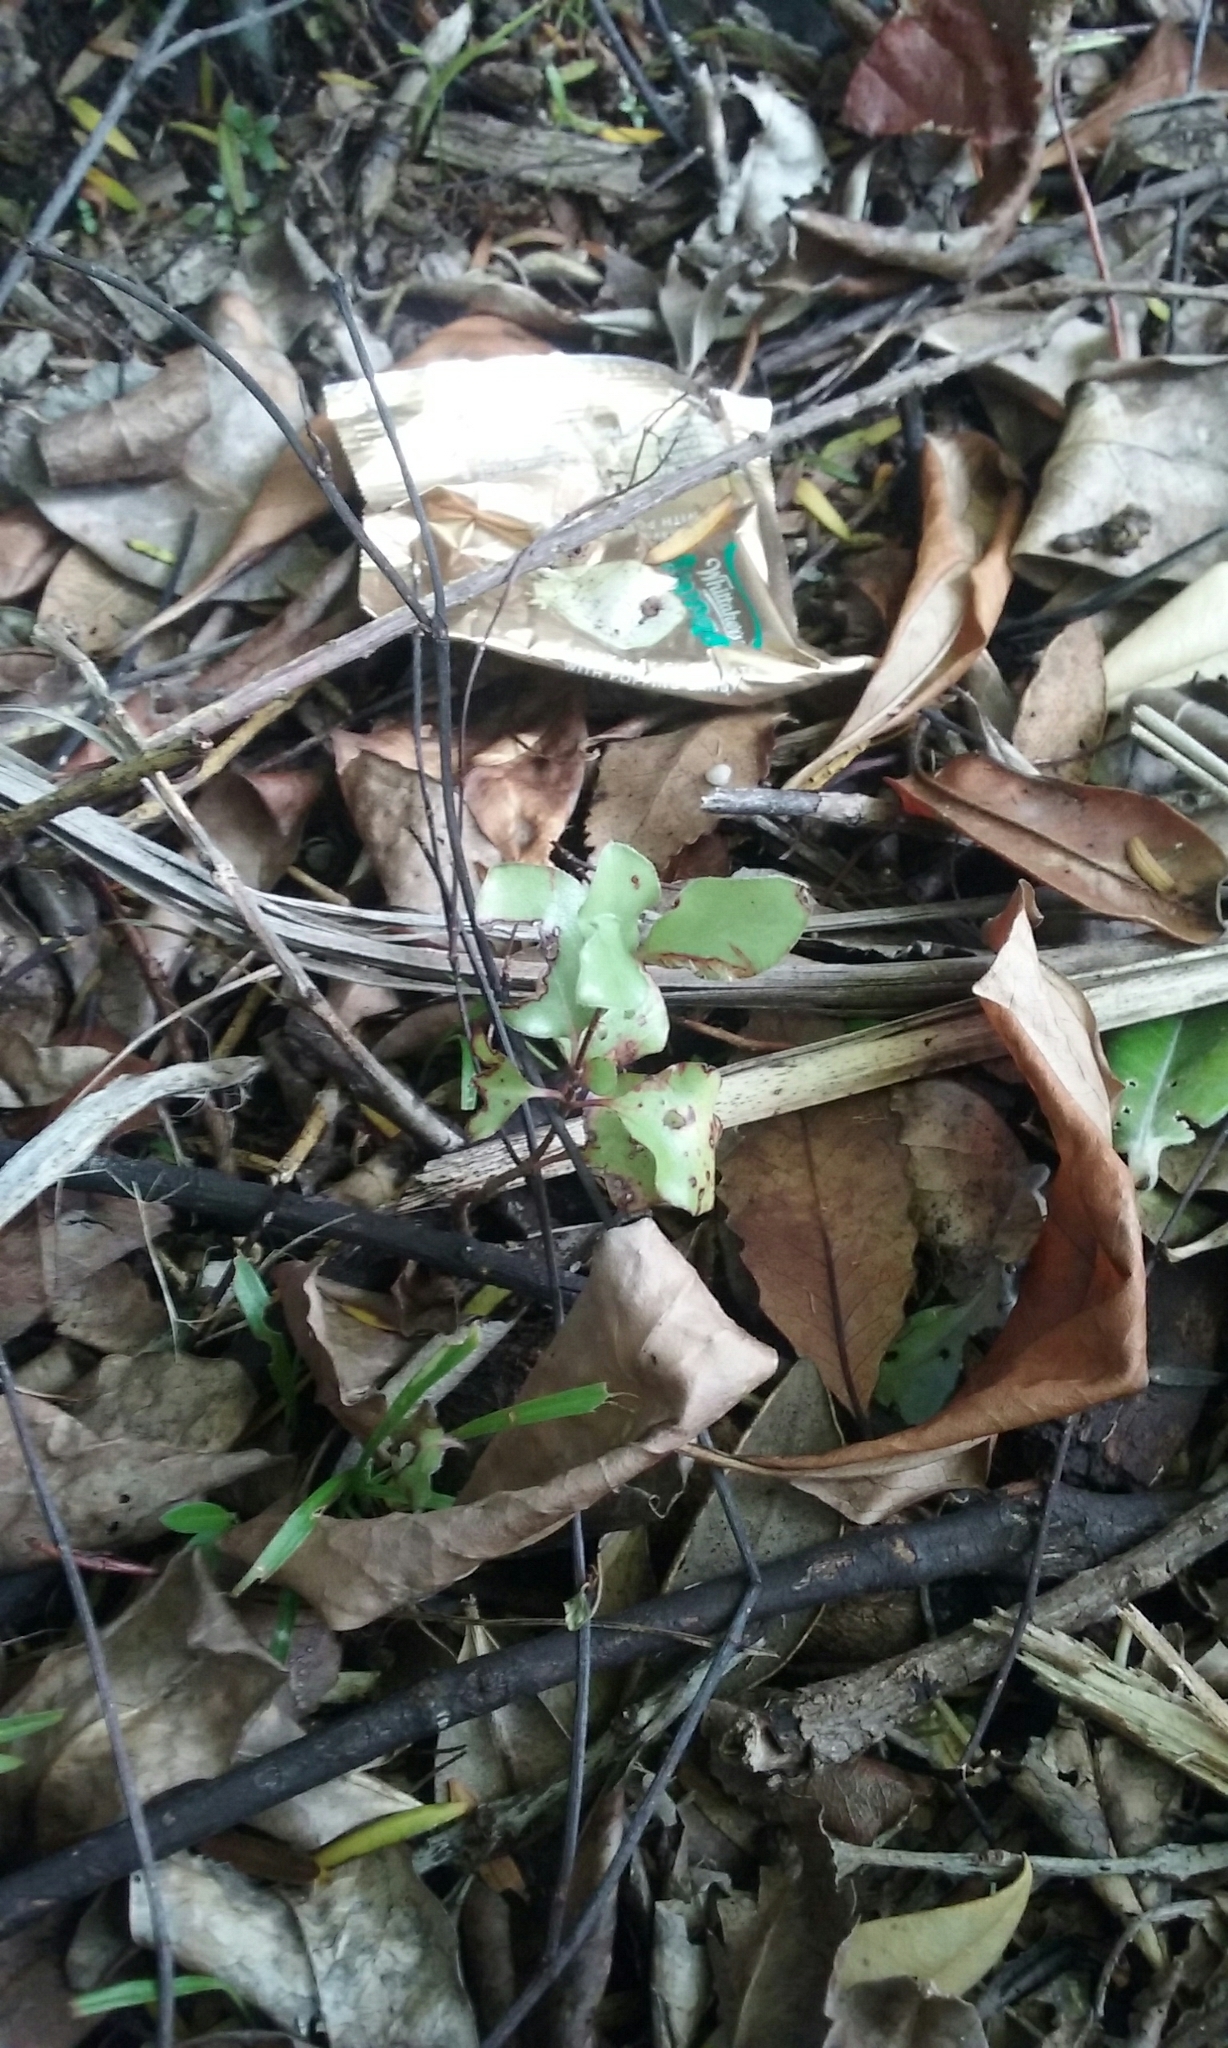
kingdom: Plantae
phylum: Tracheophyta
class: Magnoliopsida
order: Apiales
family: Pittosporaceae
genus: Pittosporum
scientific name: Pittosporum tenuifolium
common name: Kohuhu
